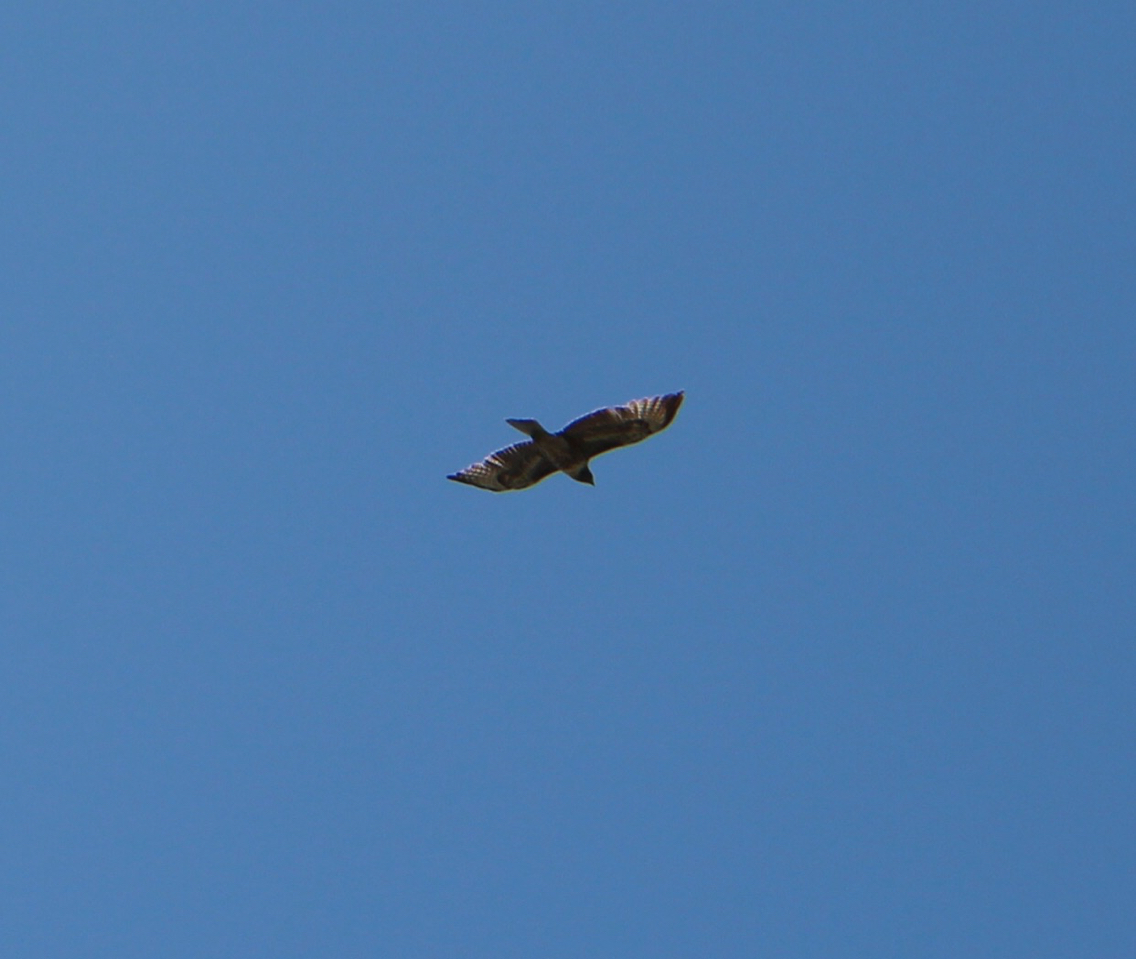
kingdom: Animalia
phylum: Chordata
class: Aves
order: Accipitriformes
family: Accipitridae
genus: Buteo
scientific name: Buteo jamaicensis
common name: Red-tailed hawk
